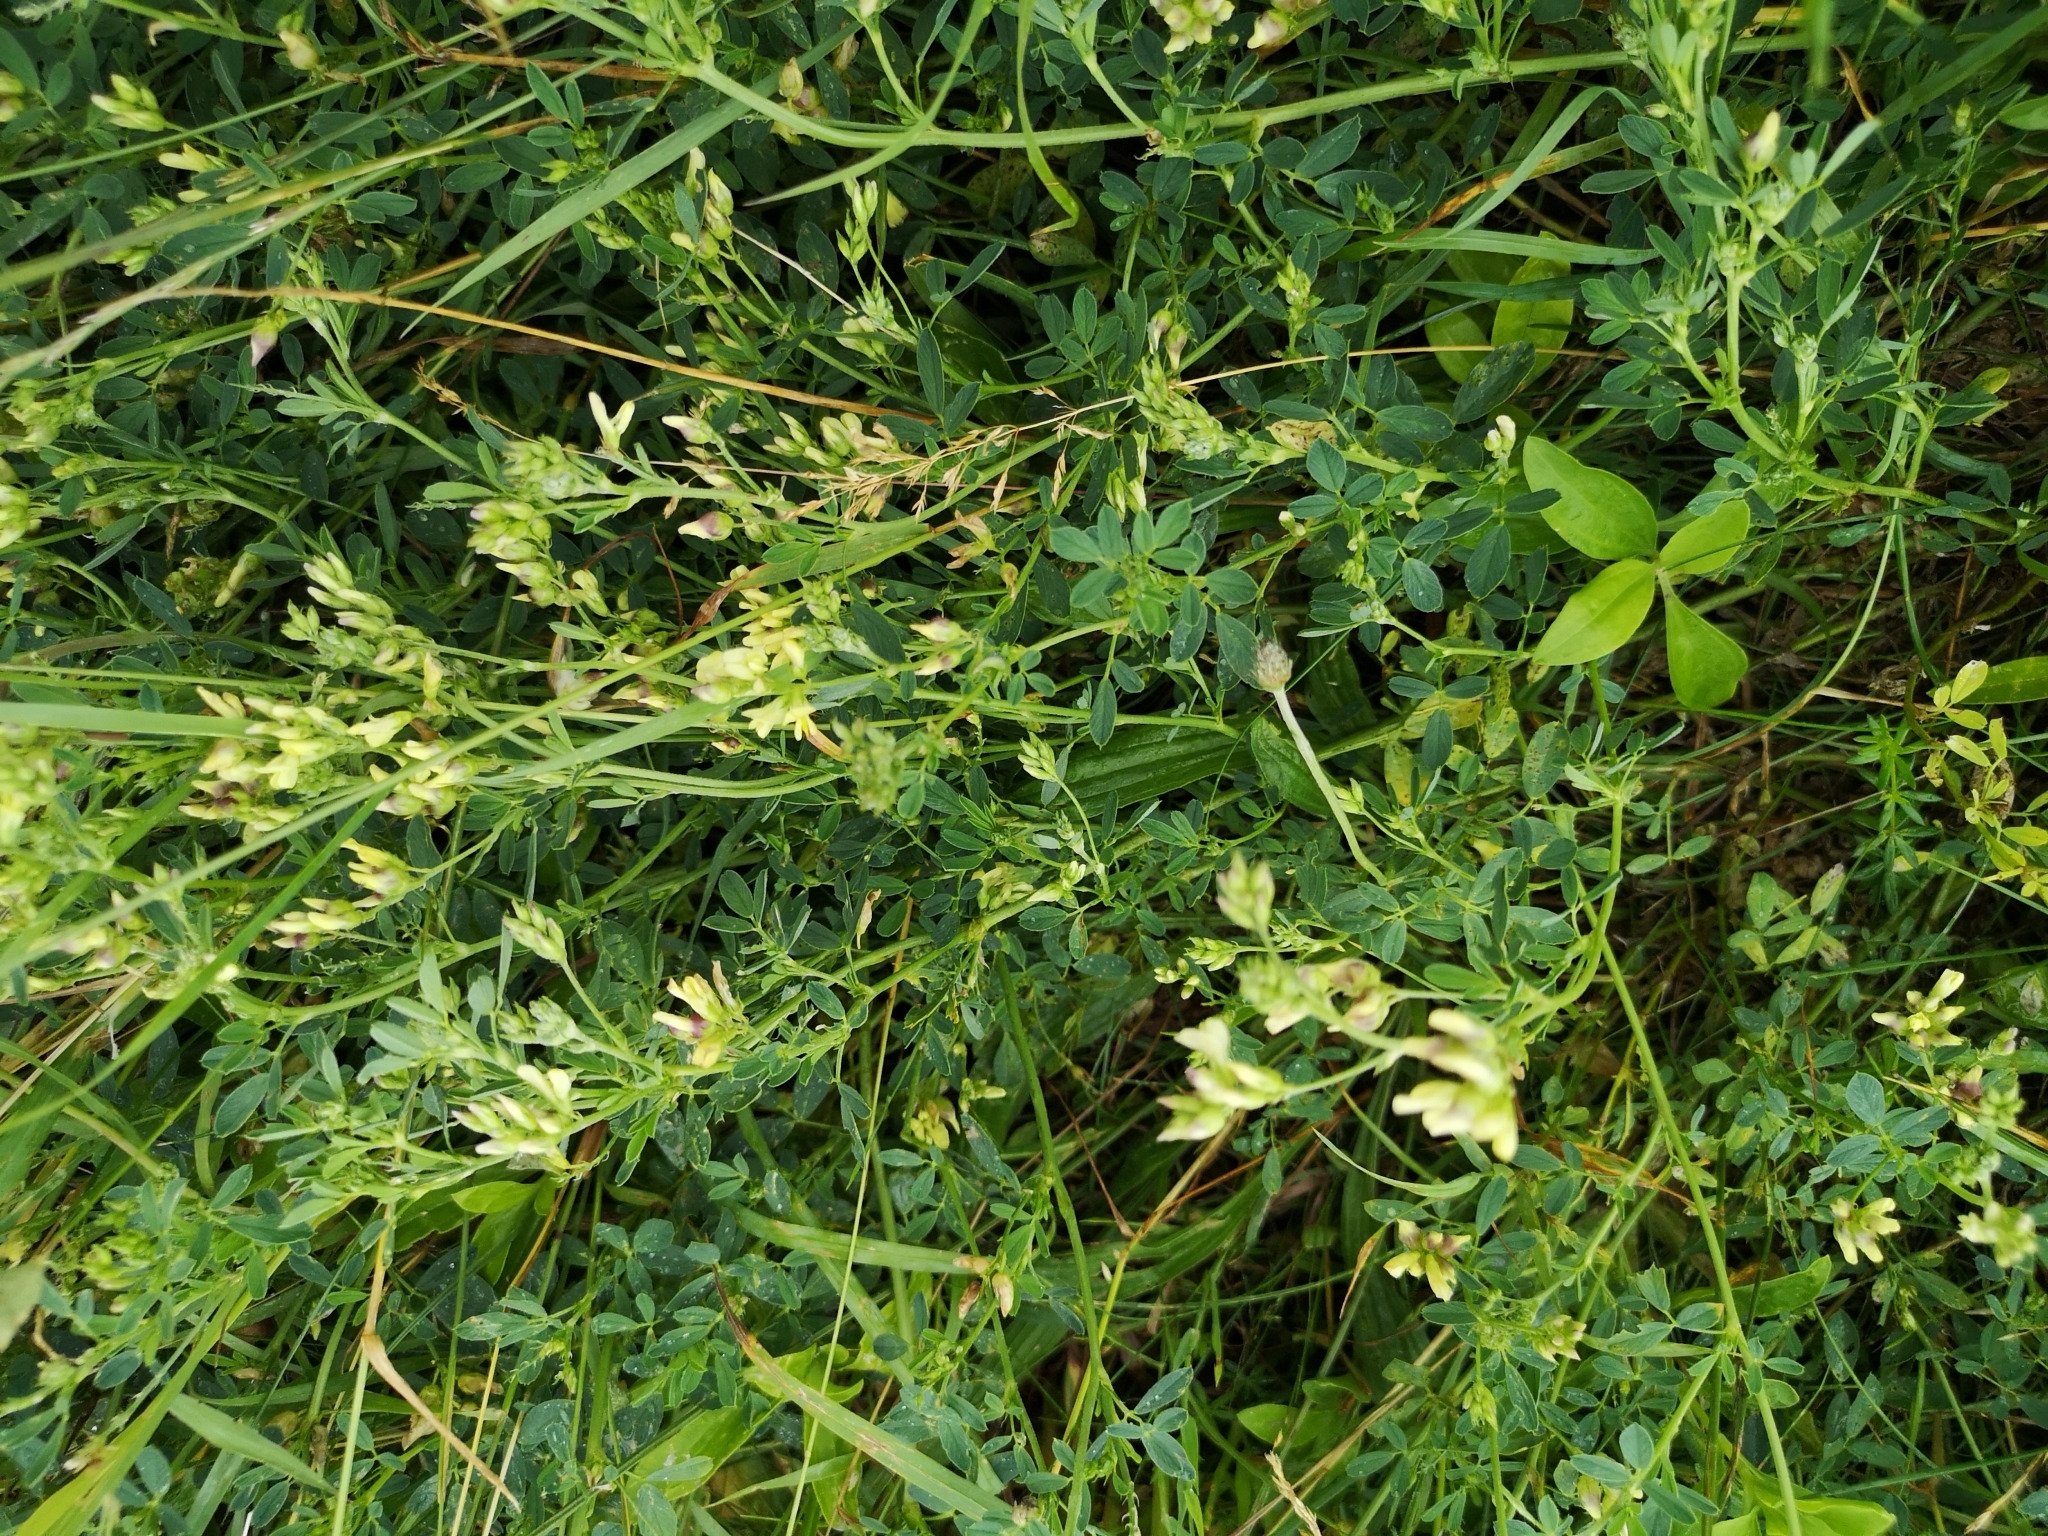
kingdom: Plantae
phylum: Tracheophyta
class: Magnoliopsida
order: Fabales
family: Fabaceae
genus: Medicago
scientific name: Medicago varia
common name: Sand lucerne
